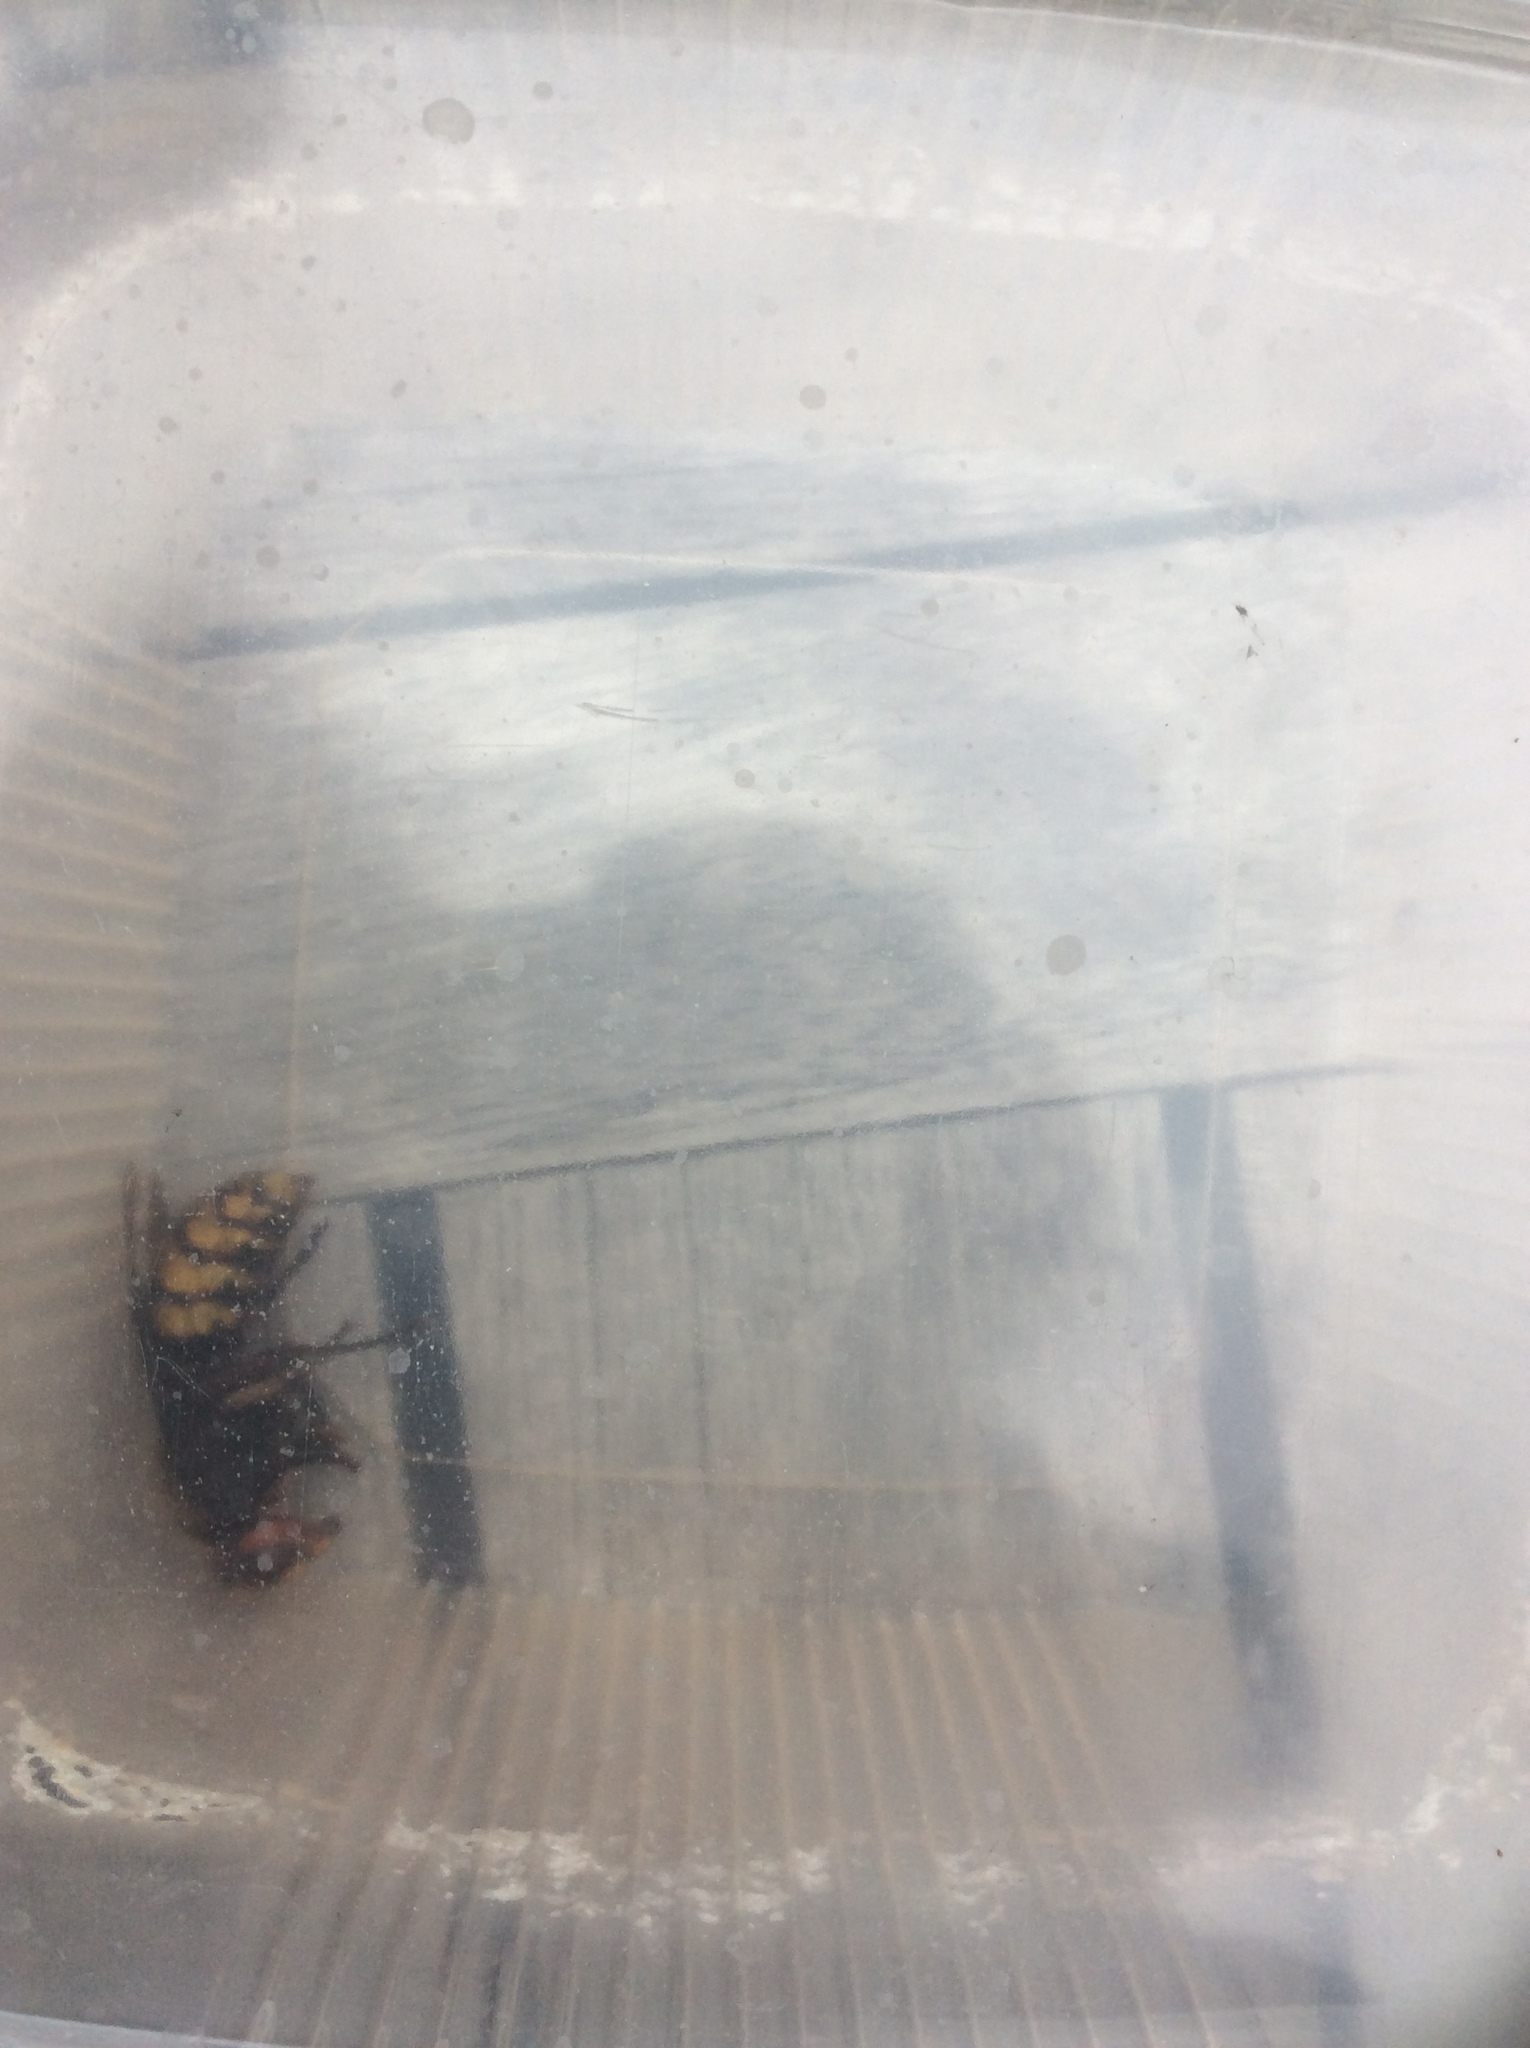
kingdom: Animalia
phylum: Arthropoda
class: Insecta
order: Hymenoptera
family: Vespidae
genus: Vespa
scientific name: Vespa crabro
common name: Hornet
